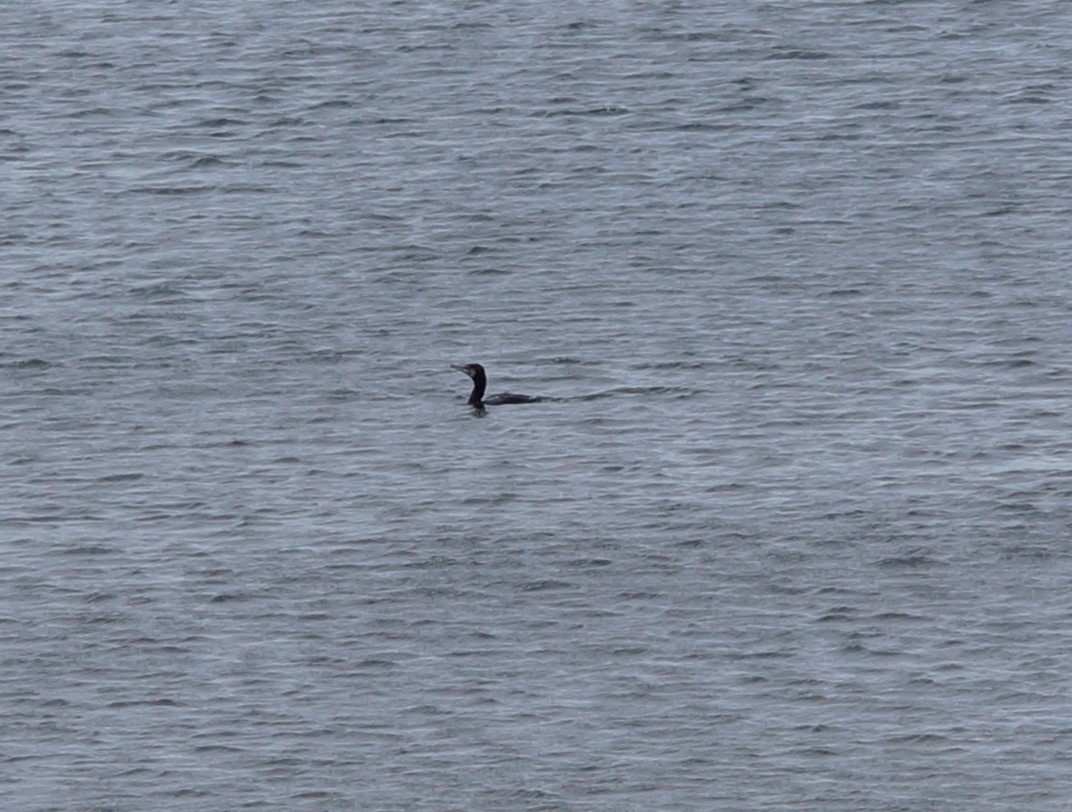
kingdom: Animalia
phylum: Chordata
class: Aves
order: Suliformes
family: Phalacrocoracidae
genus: Phalacrocorax
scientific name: Phalacrocorax carbo
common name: Great cormorant
